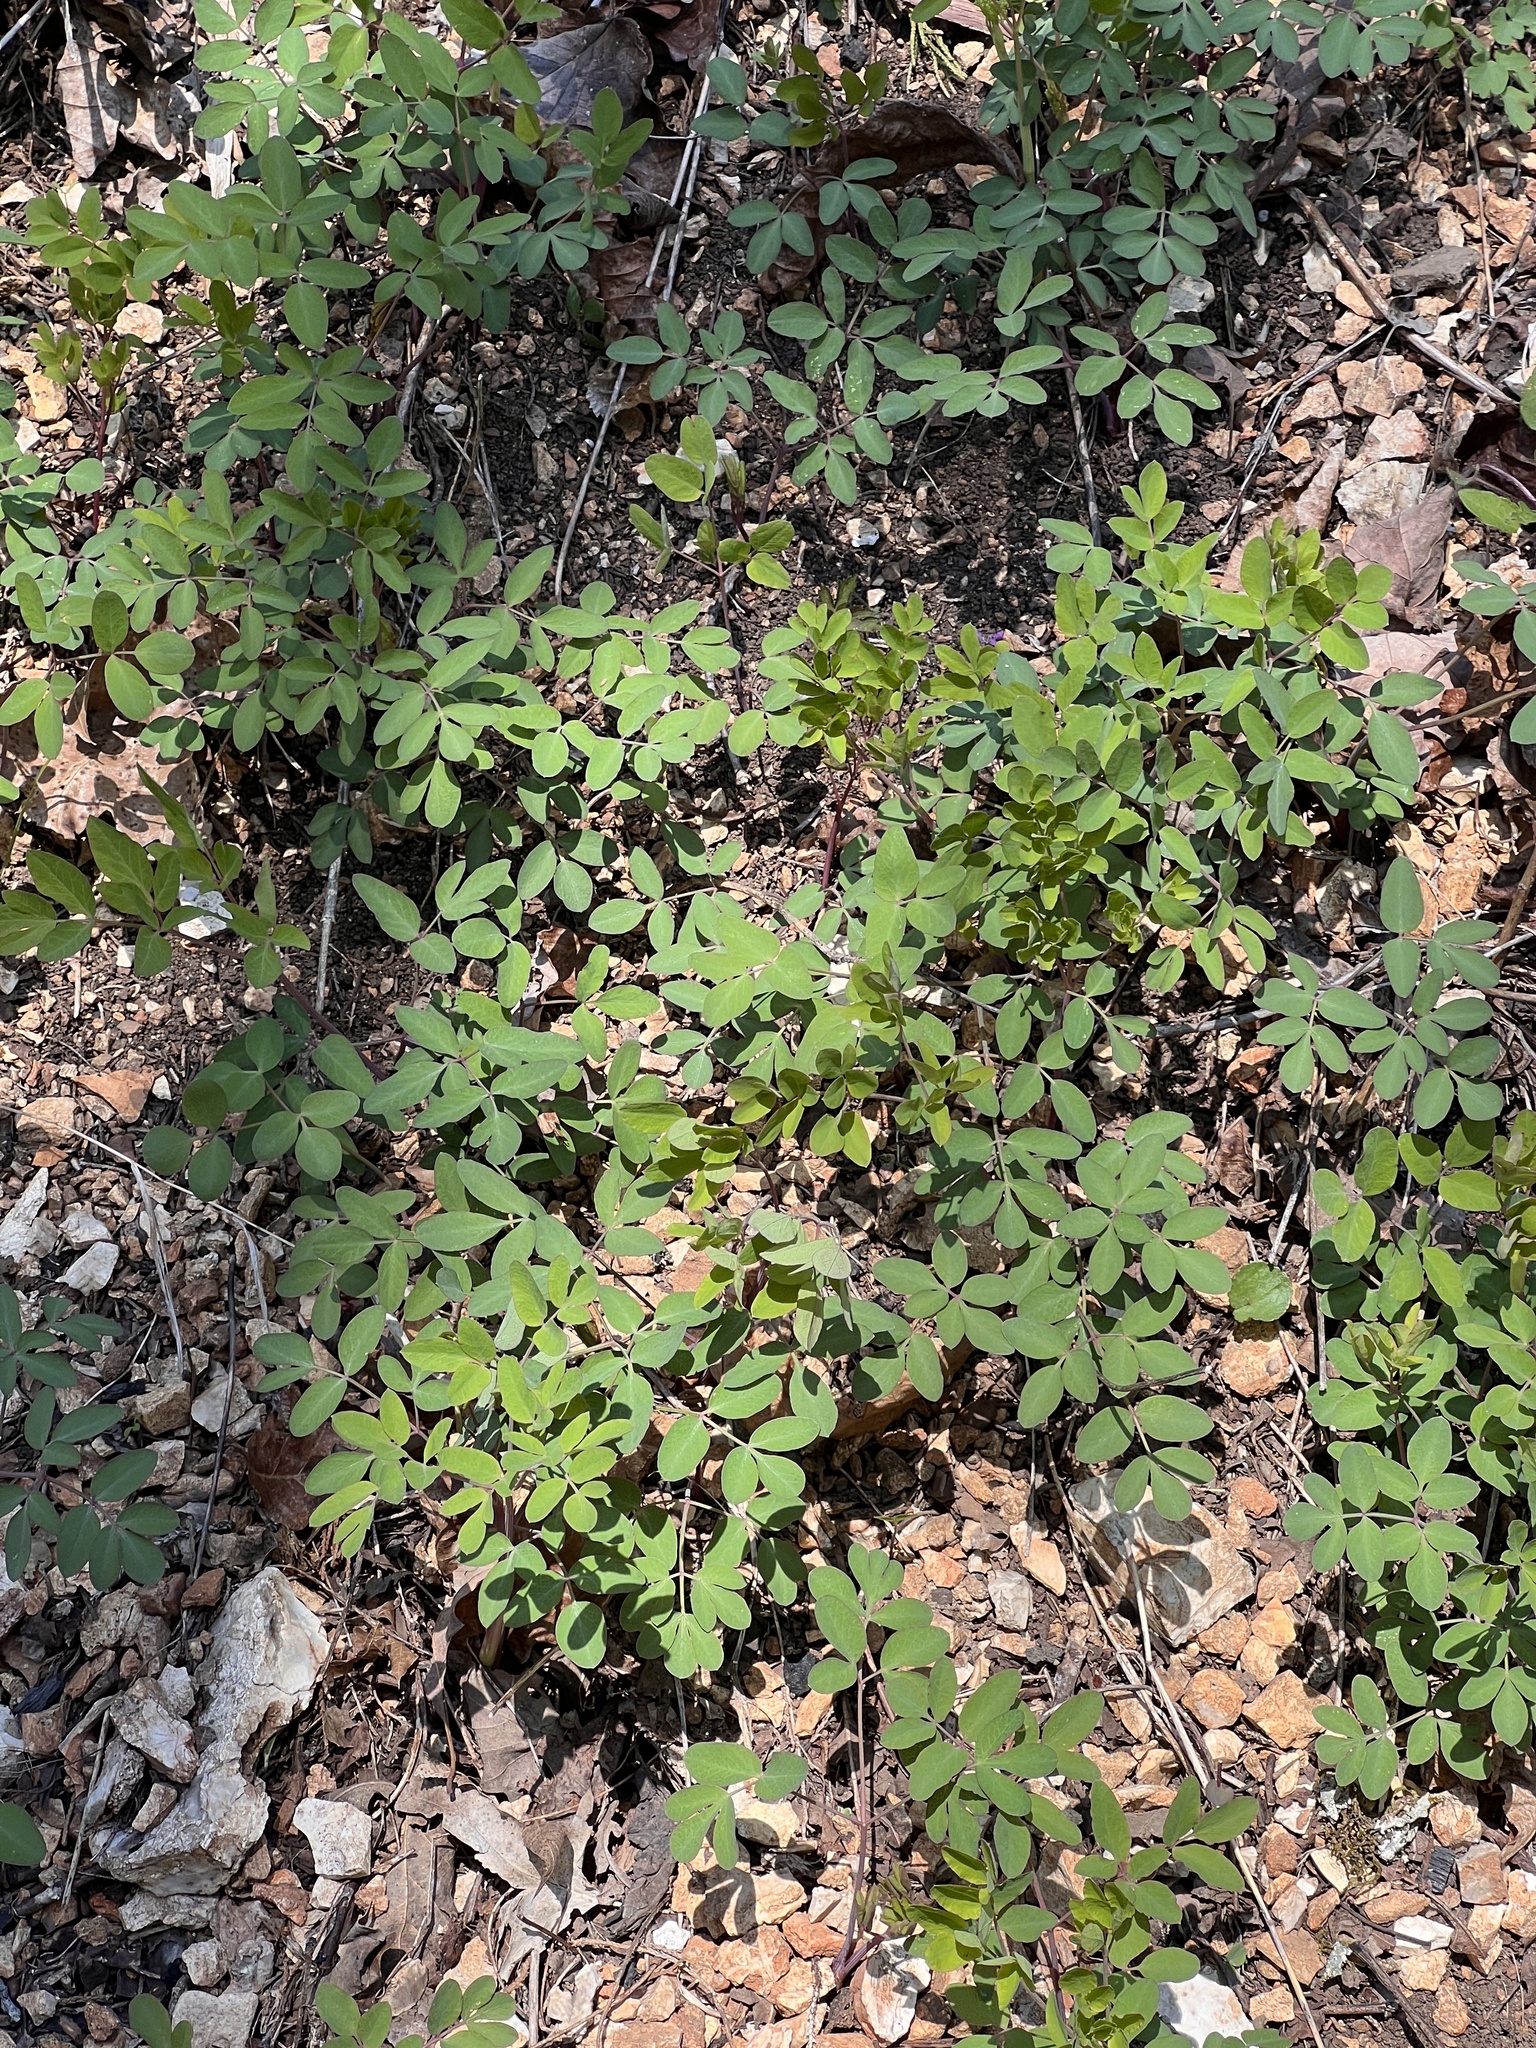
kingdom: Plantae
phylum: Tracheophyta
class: Magnoliopsida
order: Apiales
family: Apiaceae
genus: Taenidia
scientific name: Taenidia integerrima
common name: Golden alexander
